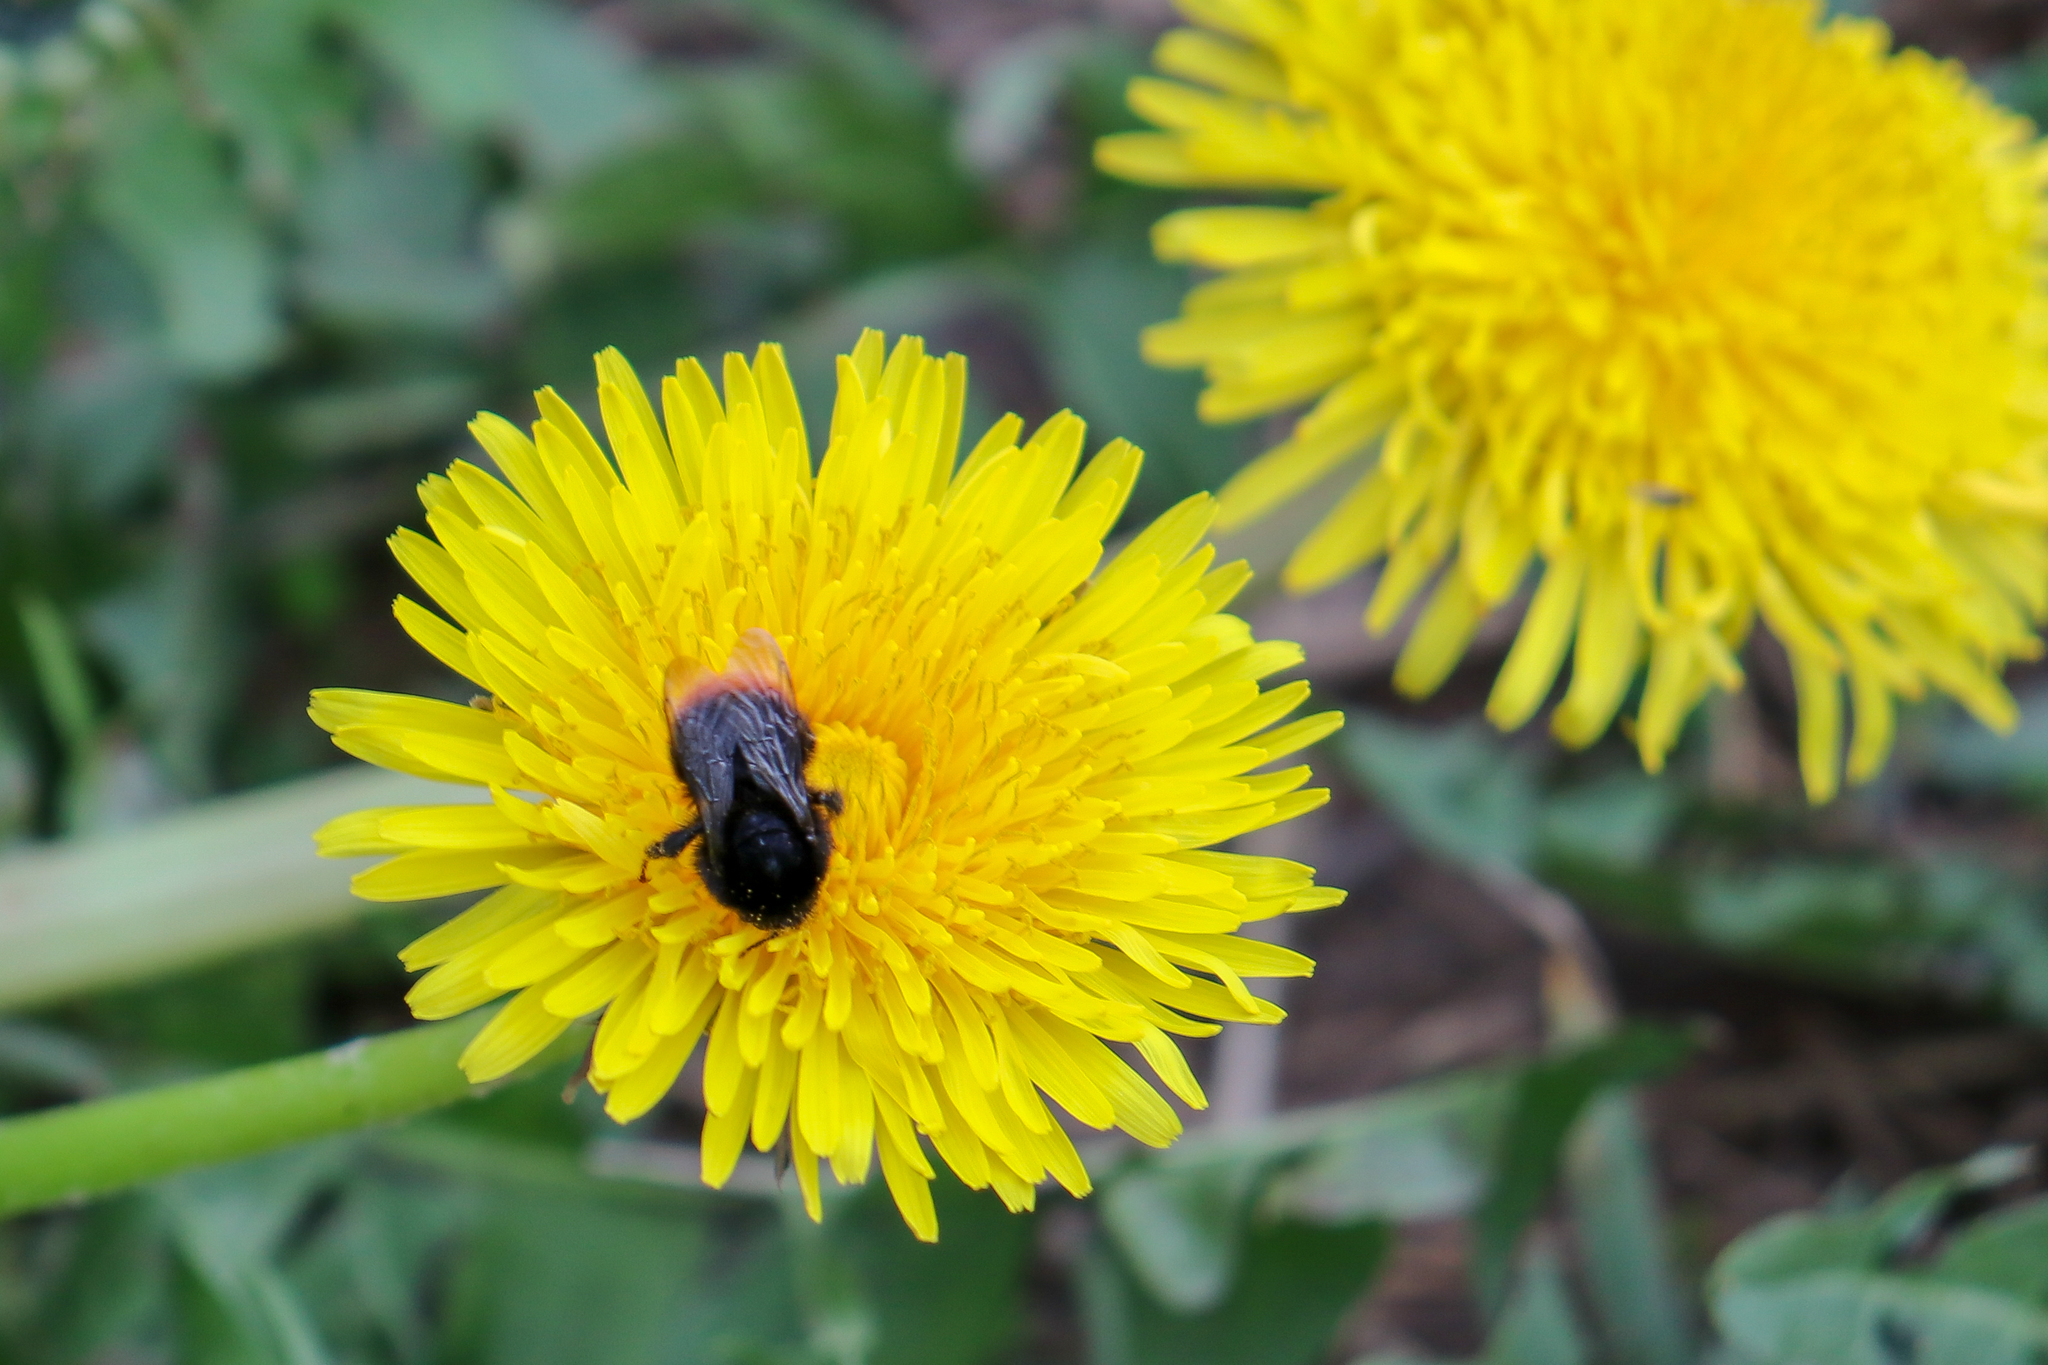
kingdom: Plantae
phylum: Tracheophyta
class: Magnoliopsida
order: Asterales
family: Asteraceae
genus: Taraxacum
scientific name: Taraxacum officinale
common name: Common dandelion
